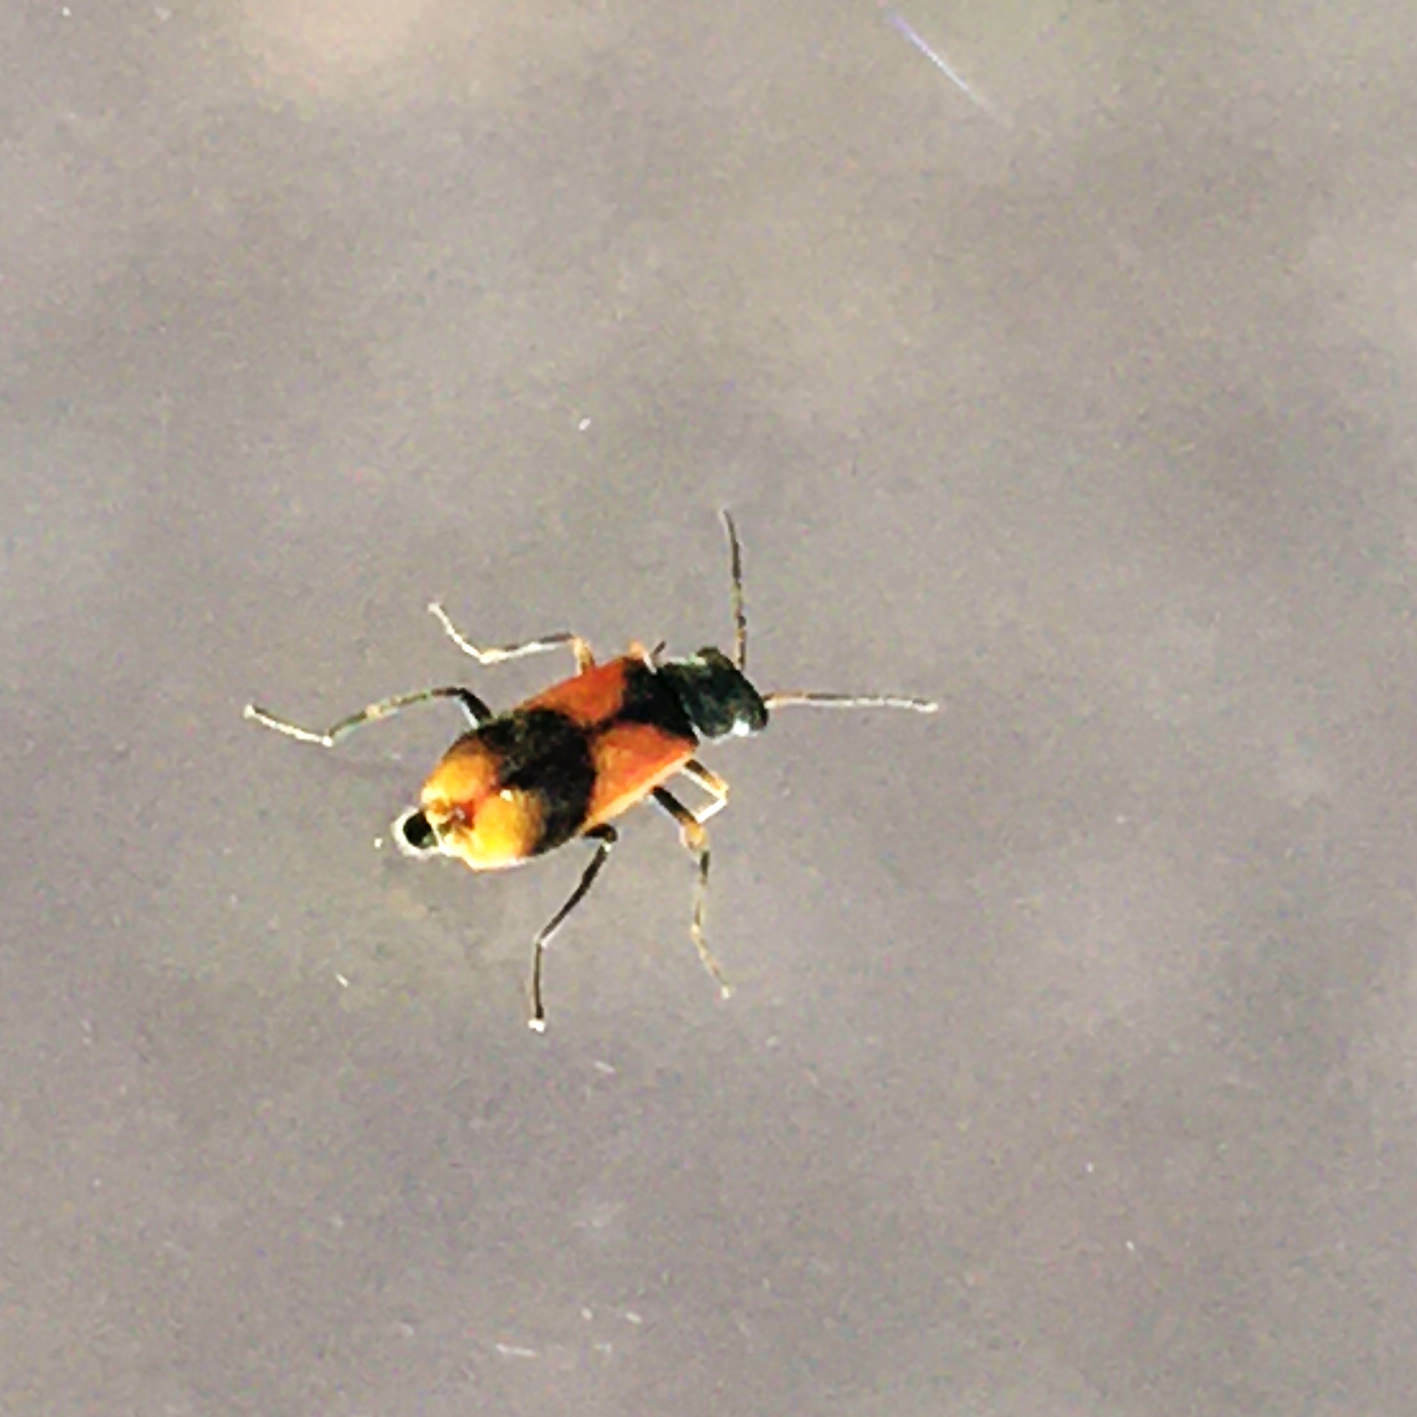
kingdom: Animalia
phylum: Arthropoda
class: Insecta
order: Coleoptera
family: Melyridae
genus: Anthocomus
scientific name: Anthocomus equestris
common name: Black-banded soft-winged flower beetle
